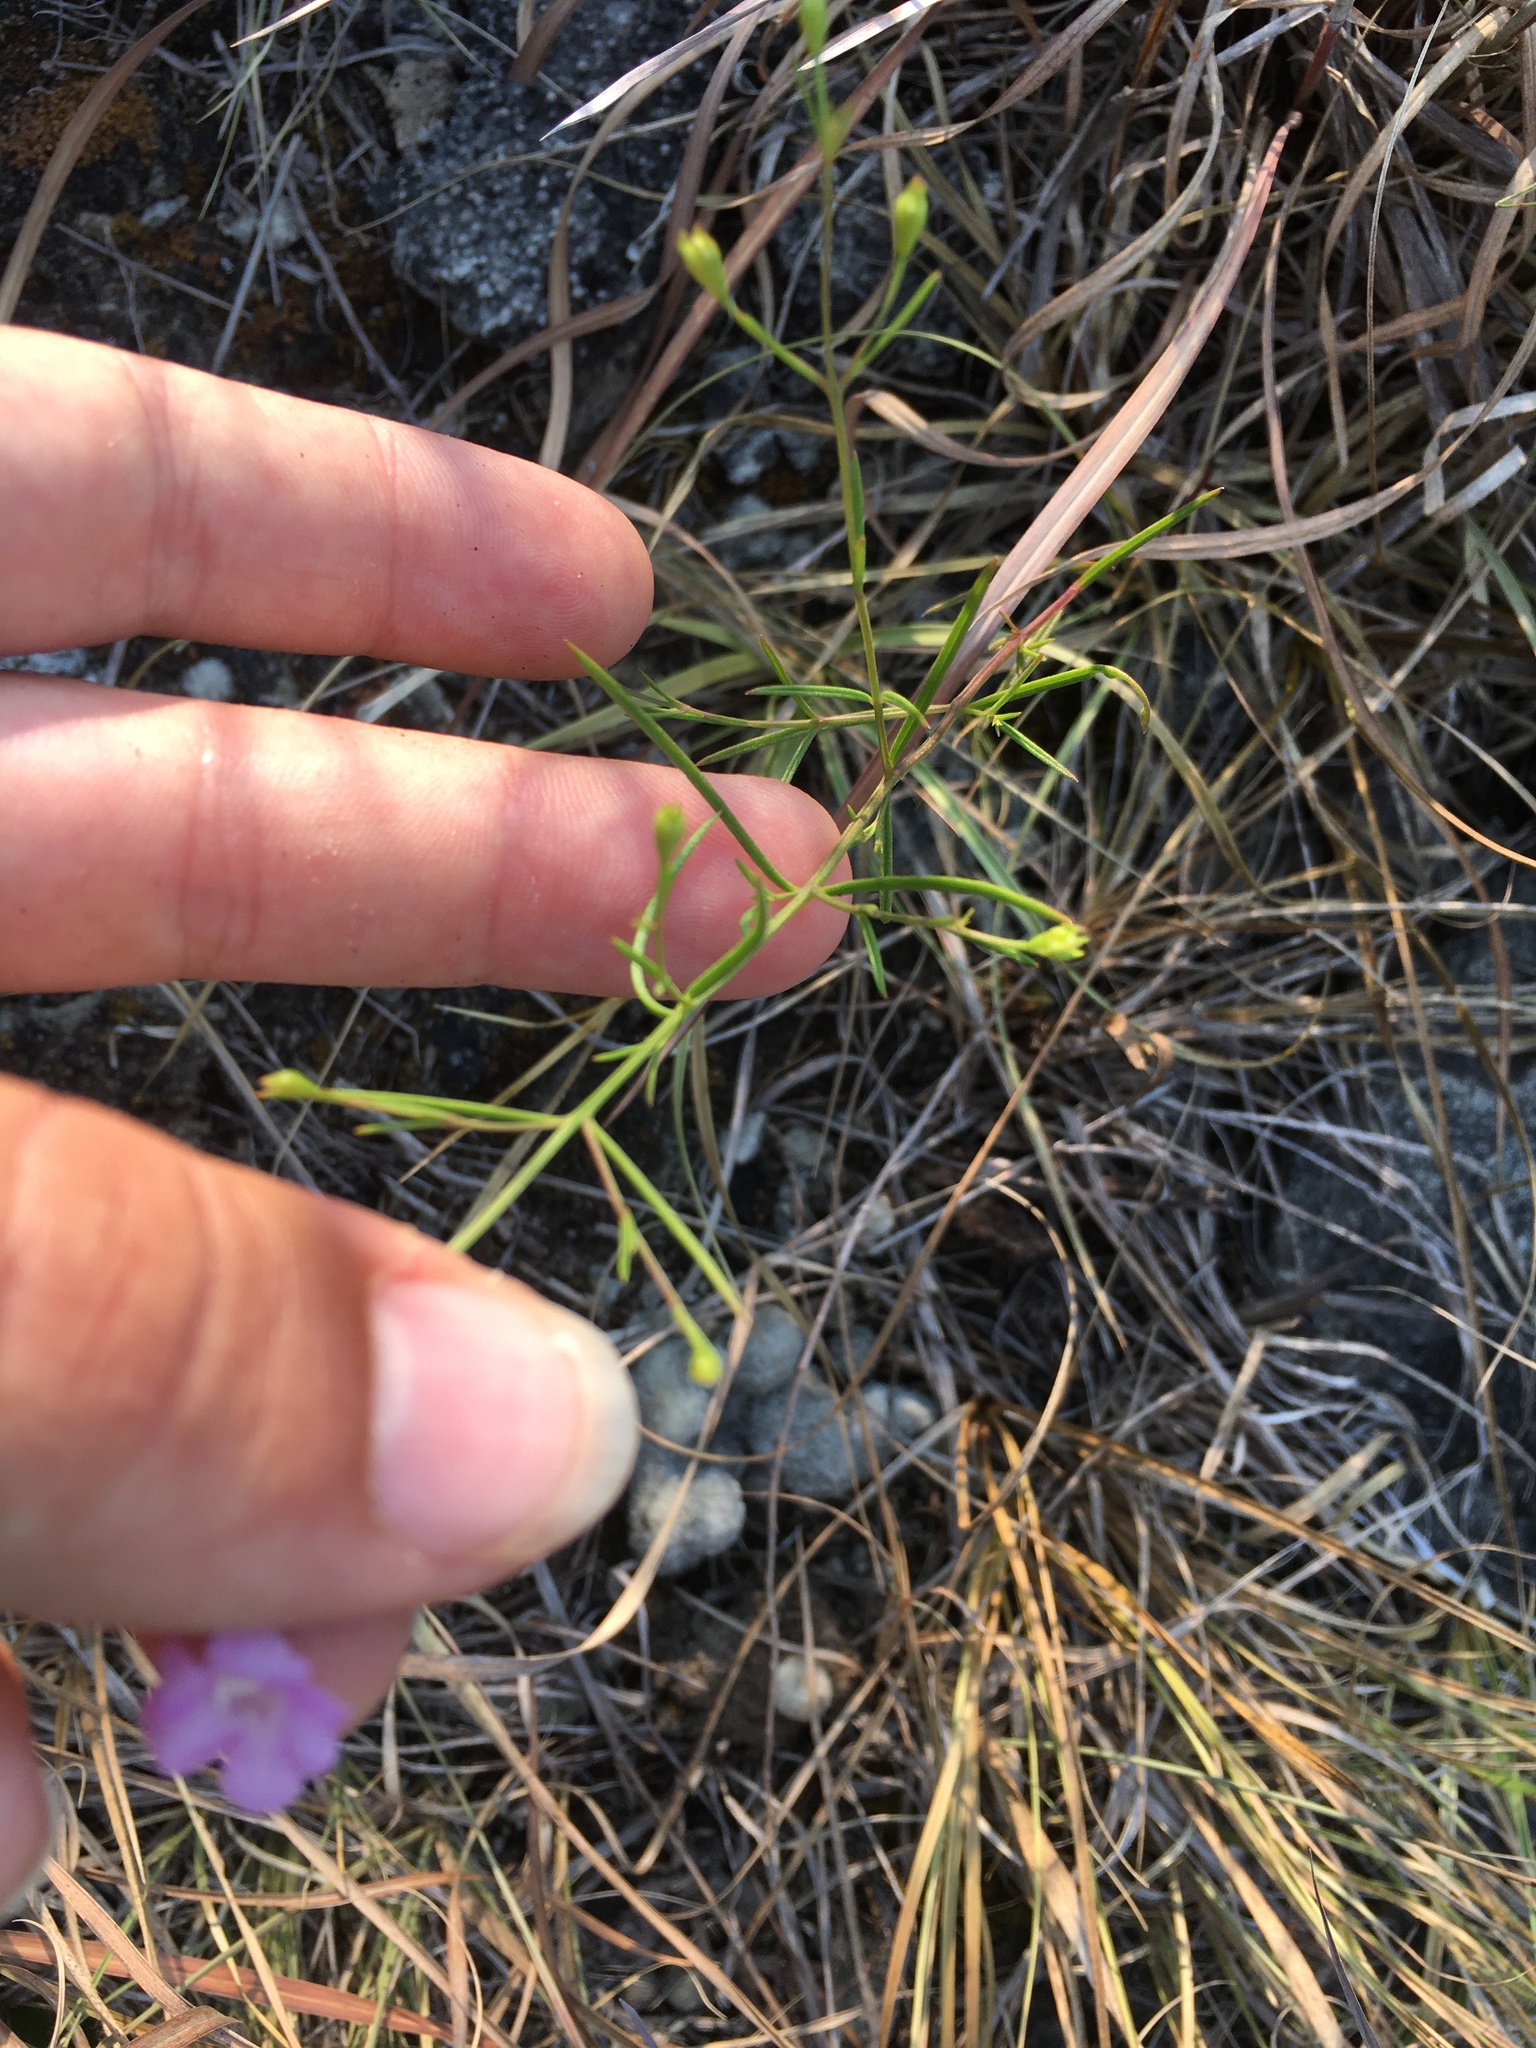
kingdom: Plantae
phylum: Tracheophyta
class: Magnoliopsida
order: Lamiales
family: Orobanchaceae
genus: Agalinis
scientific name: Agalinis aspera
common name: Rough agalinis
